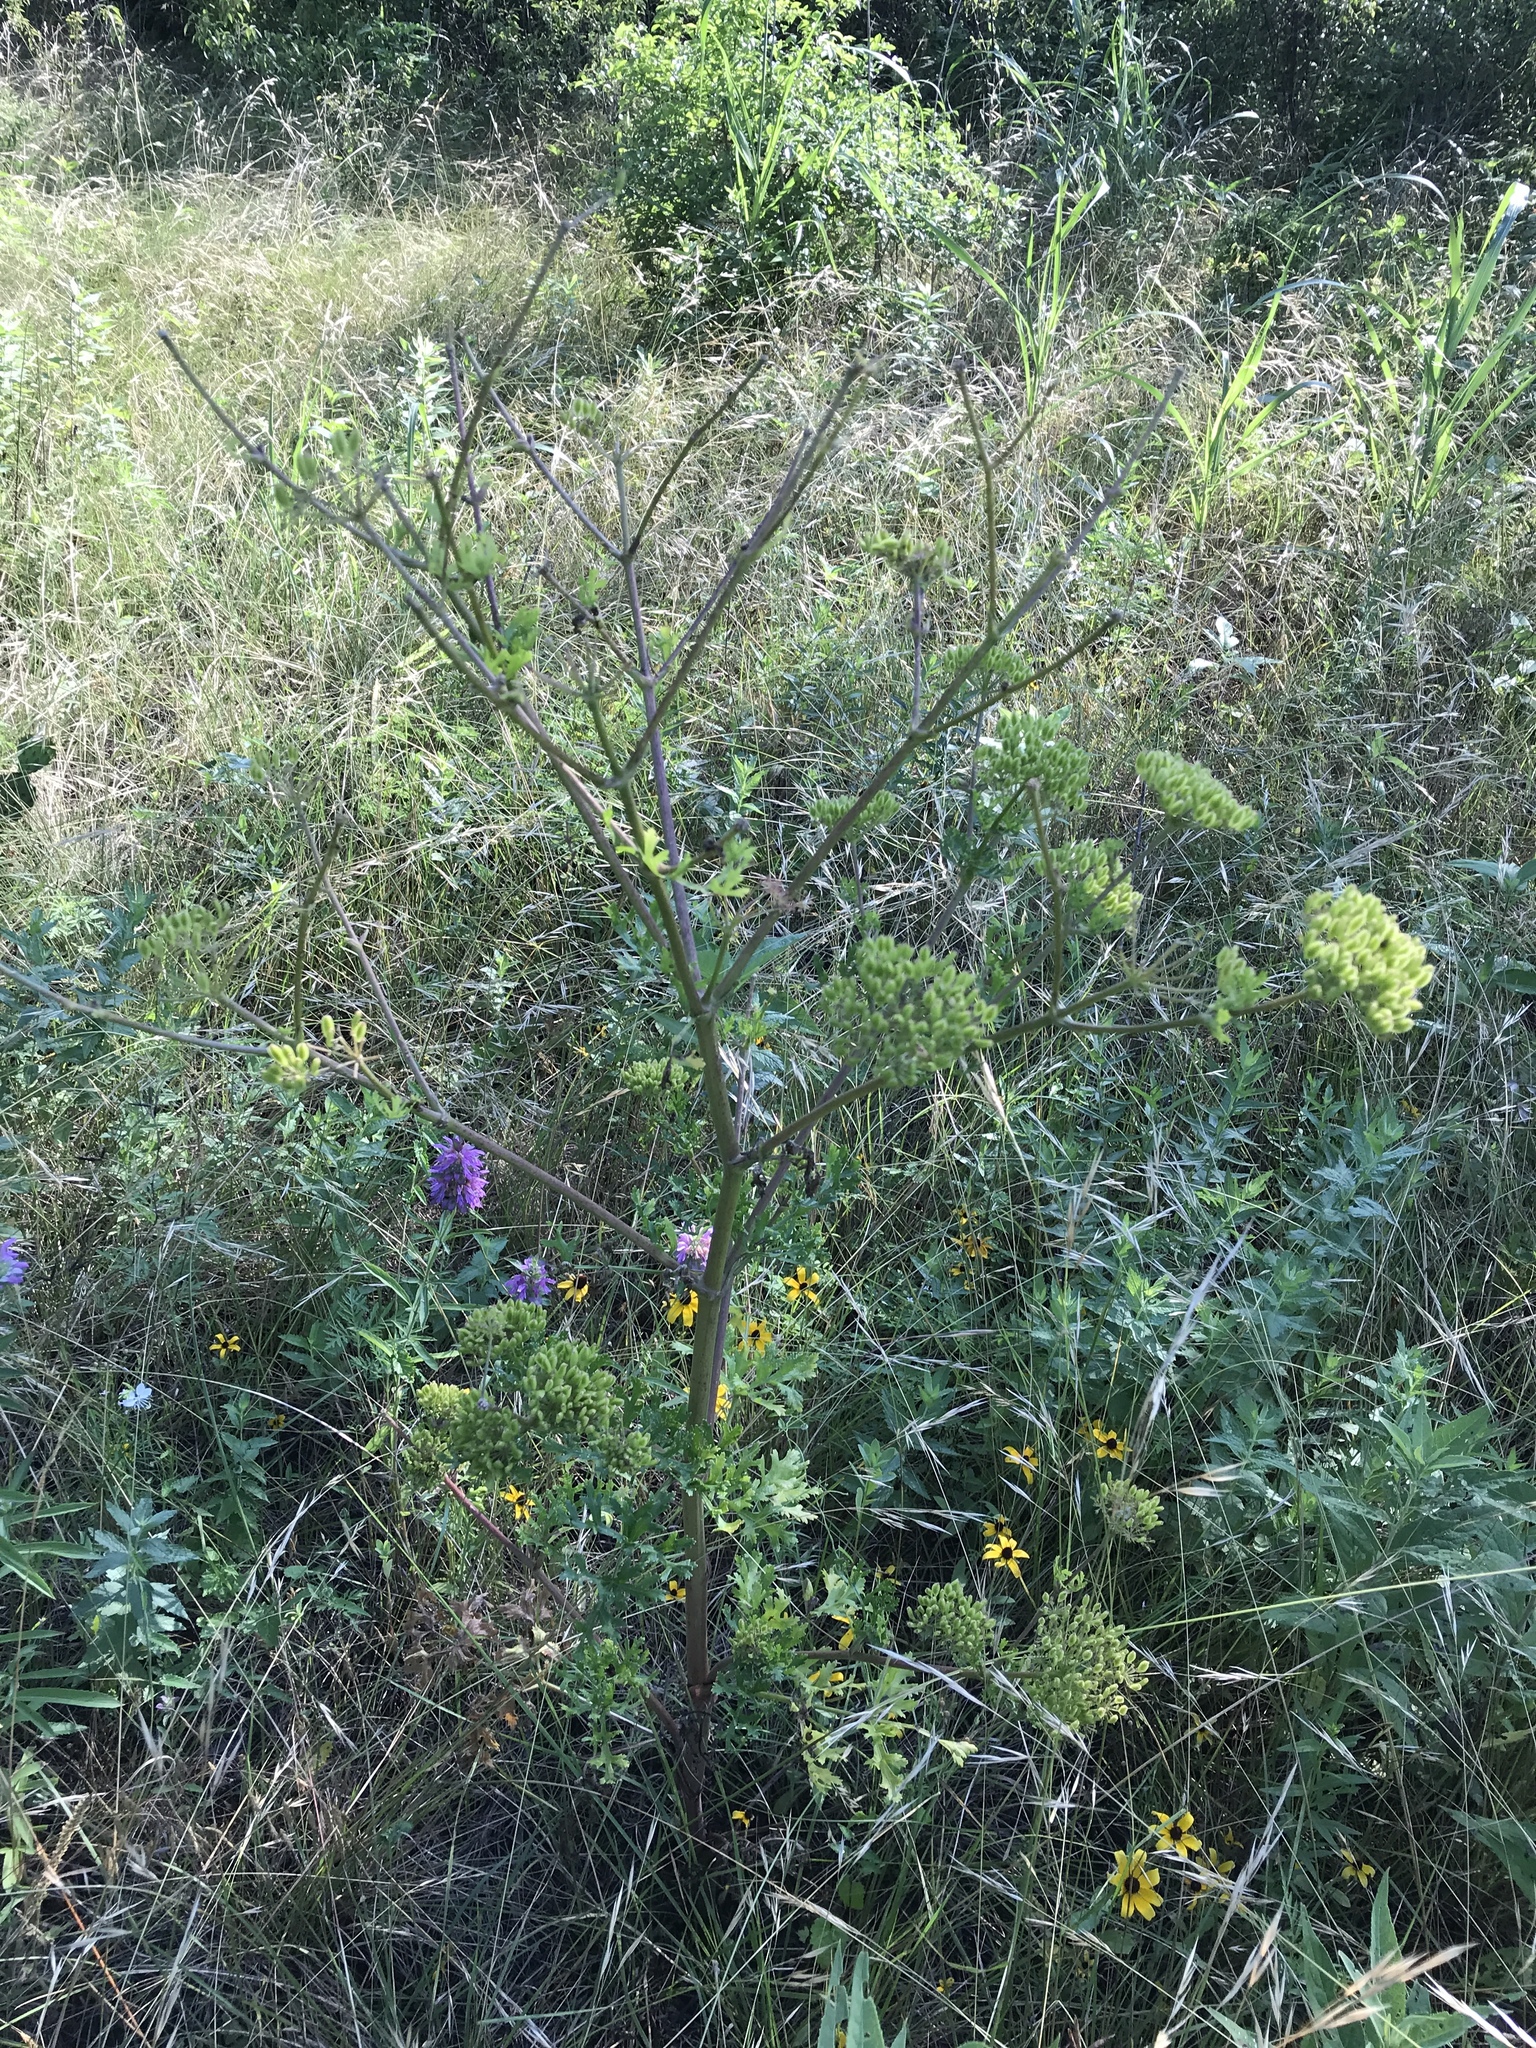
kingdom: Plantae
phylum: Tracheophyta
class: Magnoliopsida
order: Apiales
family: Apiaceae
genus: Polytaenia
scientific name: Polytaenia texana
